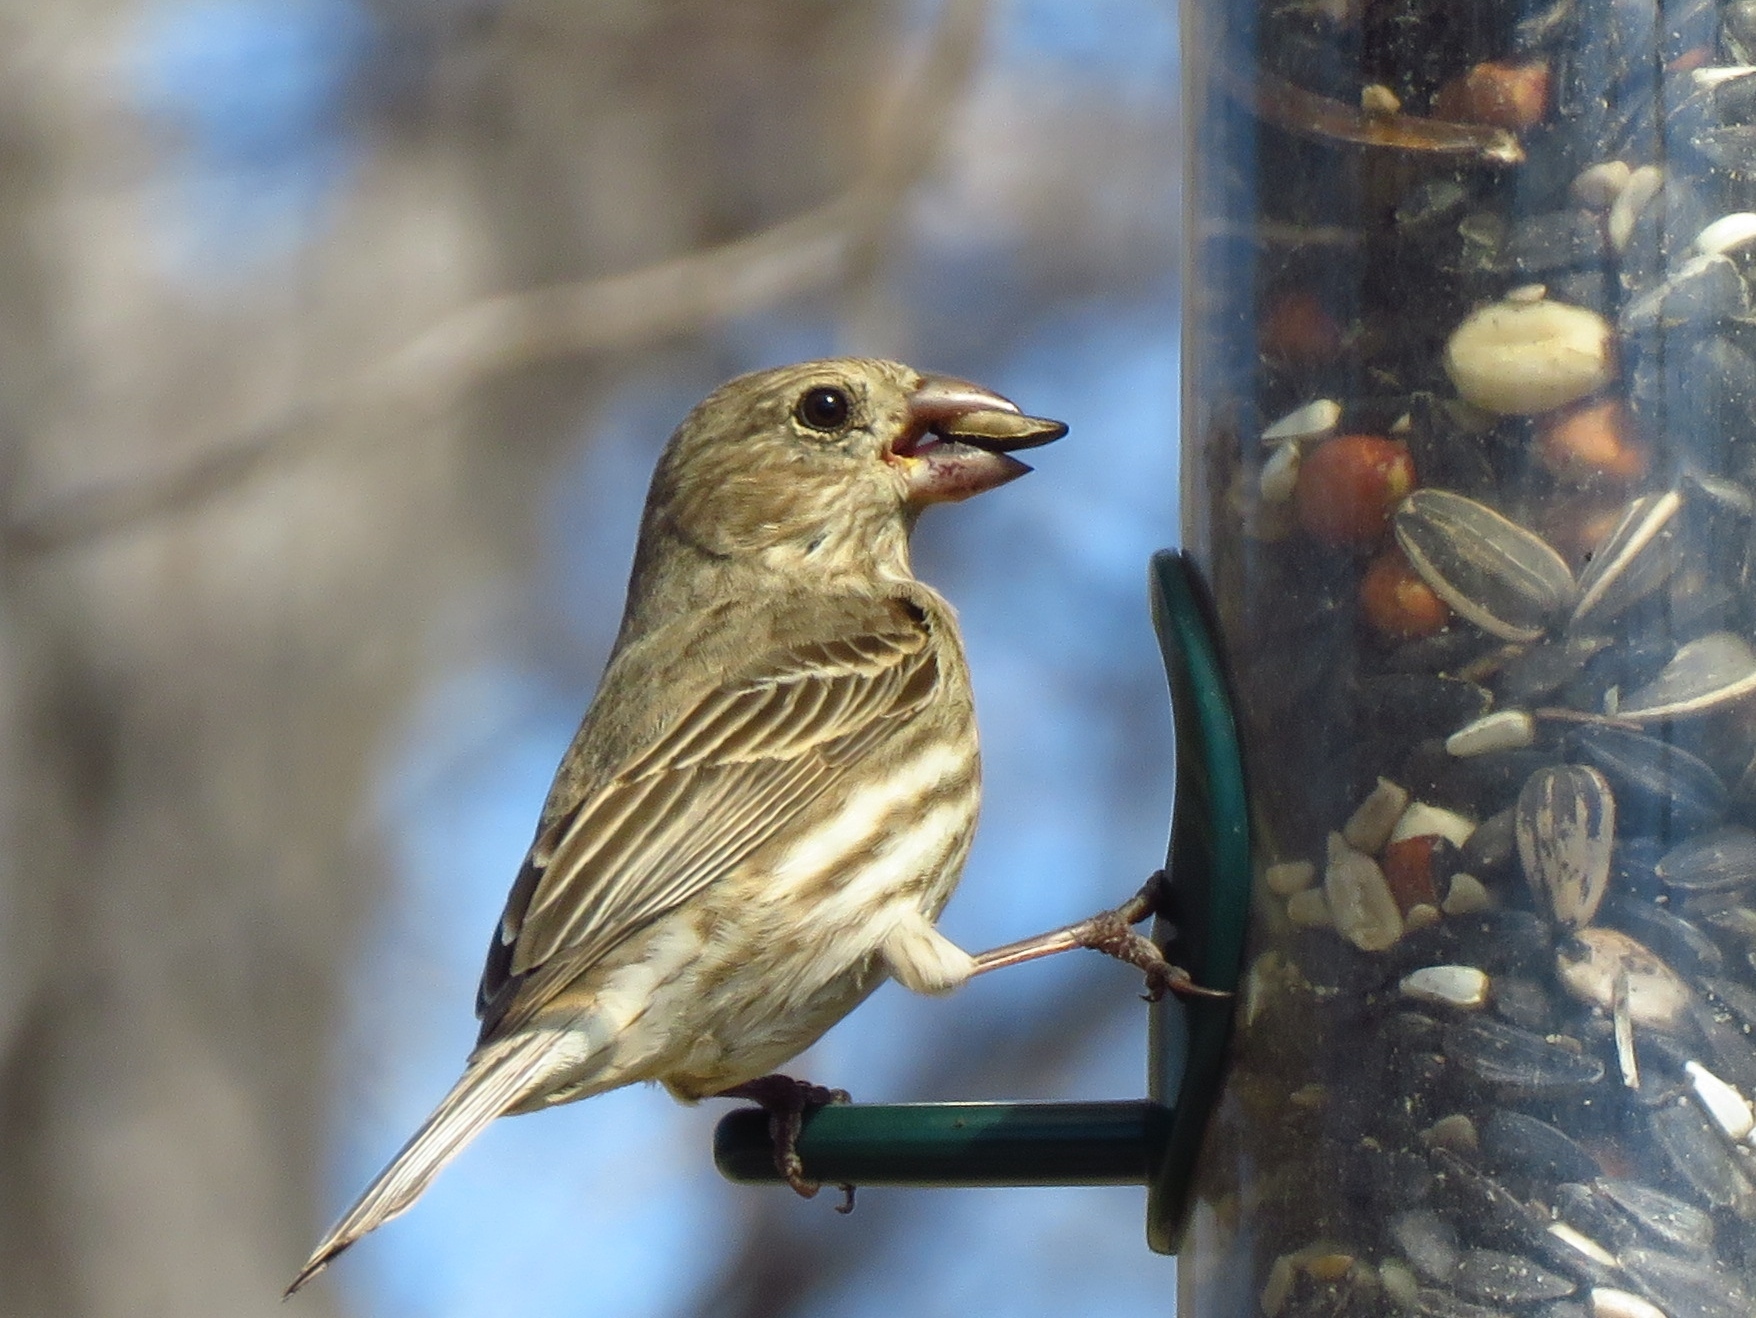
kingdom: Animalia
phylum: Chordata
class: Aves
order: Passeriformes
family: Fringillidae
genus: Haemorhous
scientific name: Haemorhous mexicanus
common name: House finch
